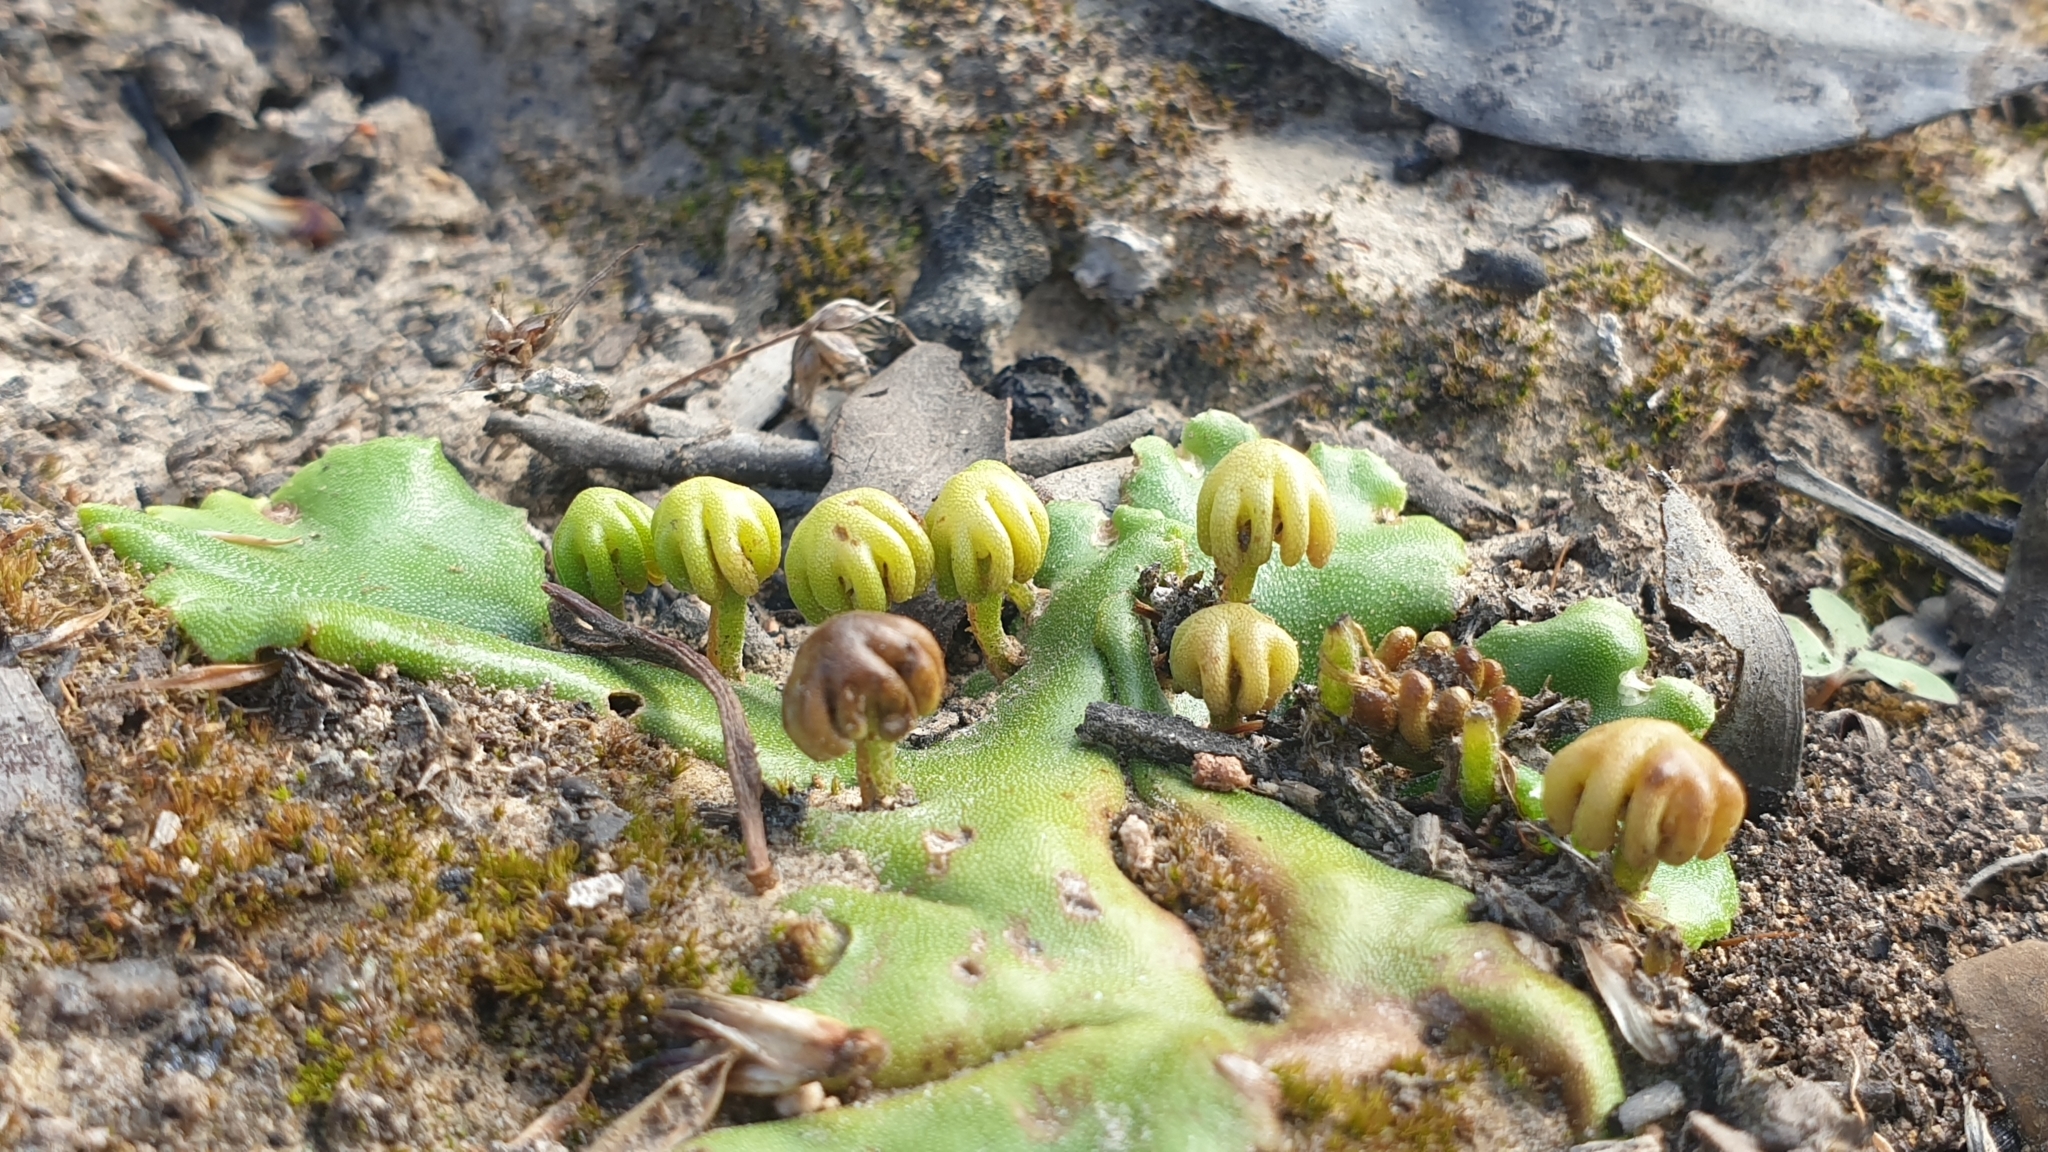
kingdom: Plantae
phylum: Marchantiophyta
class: Marchantiopsida
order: Marchantiales
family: Marchantiaceae
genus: Marchantia
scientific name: Marchantia berteroana
